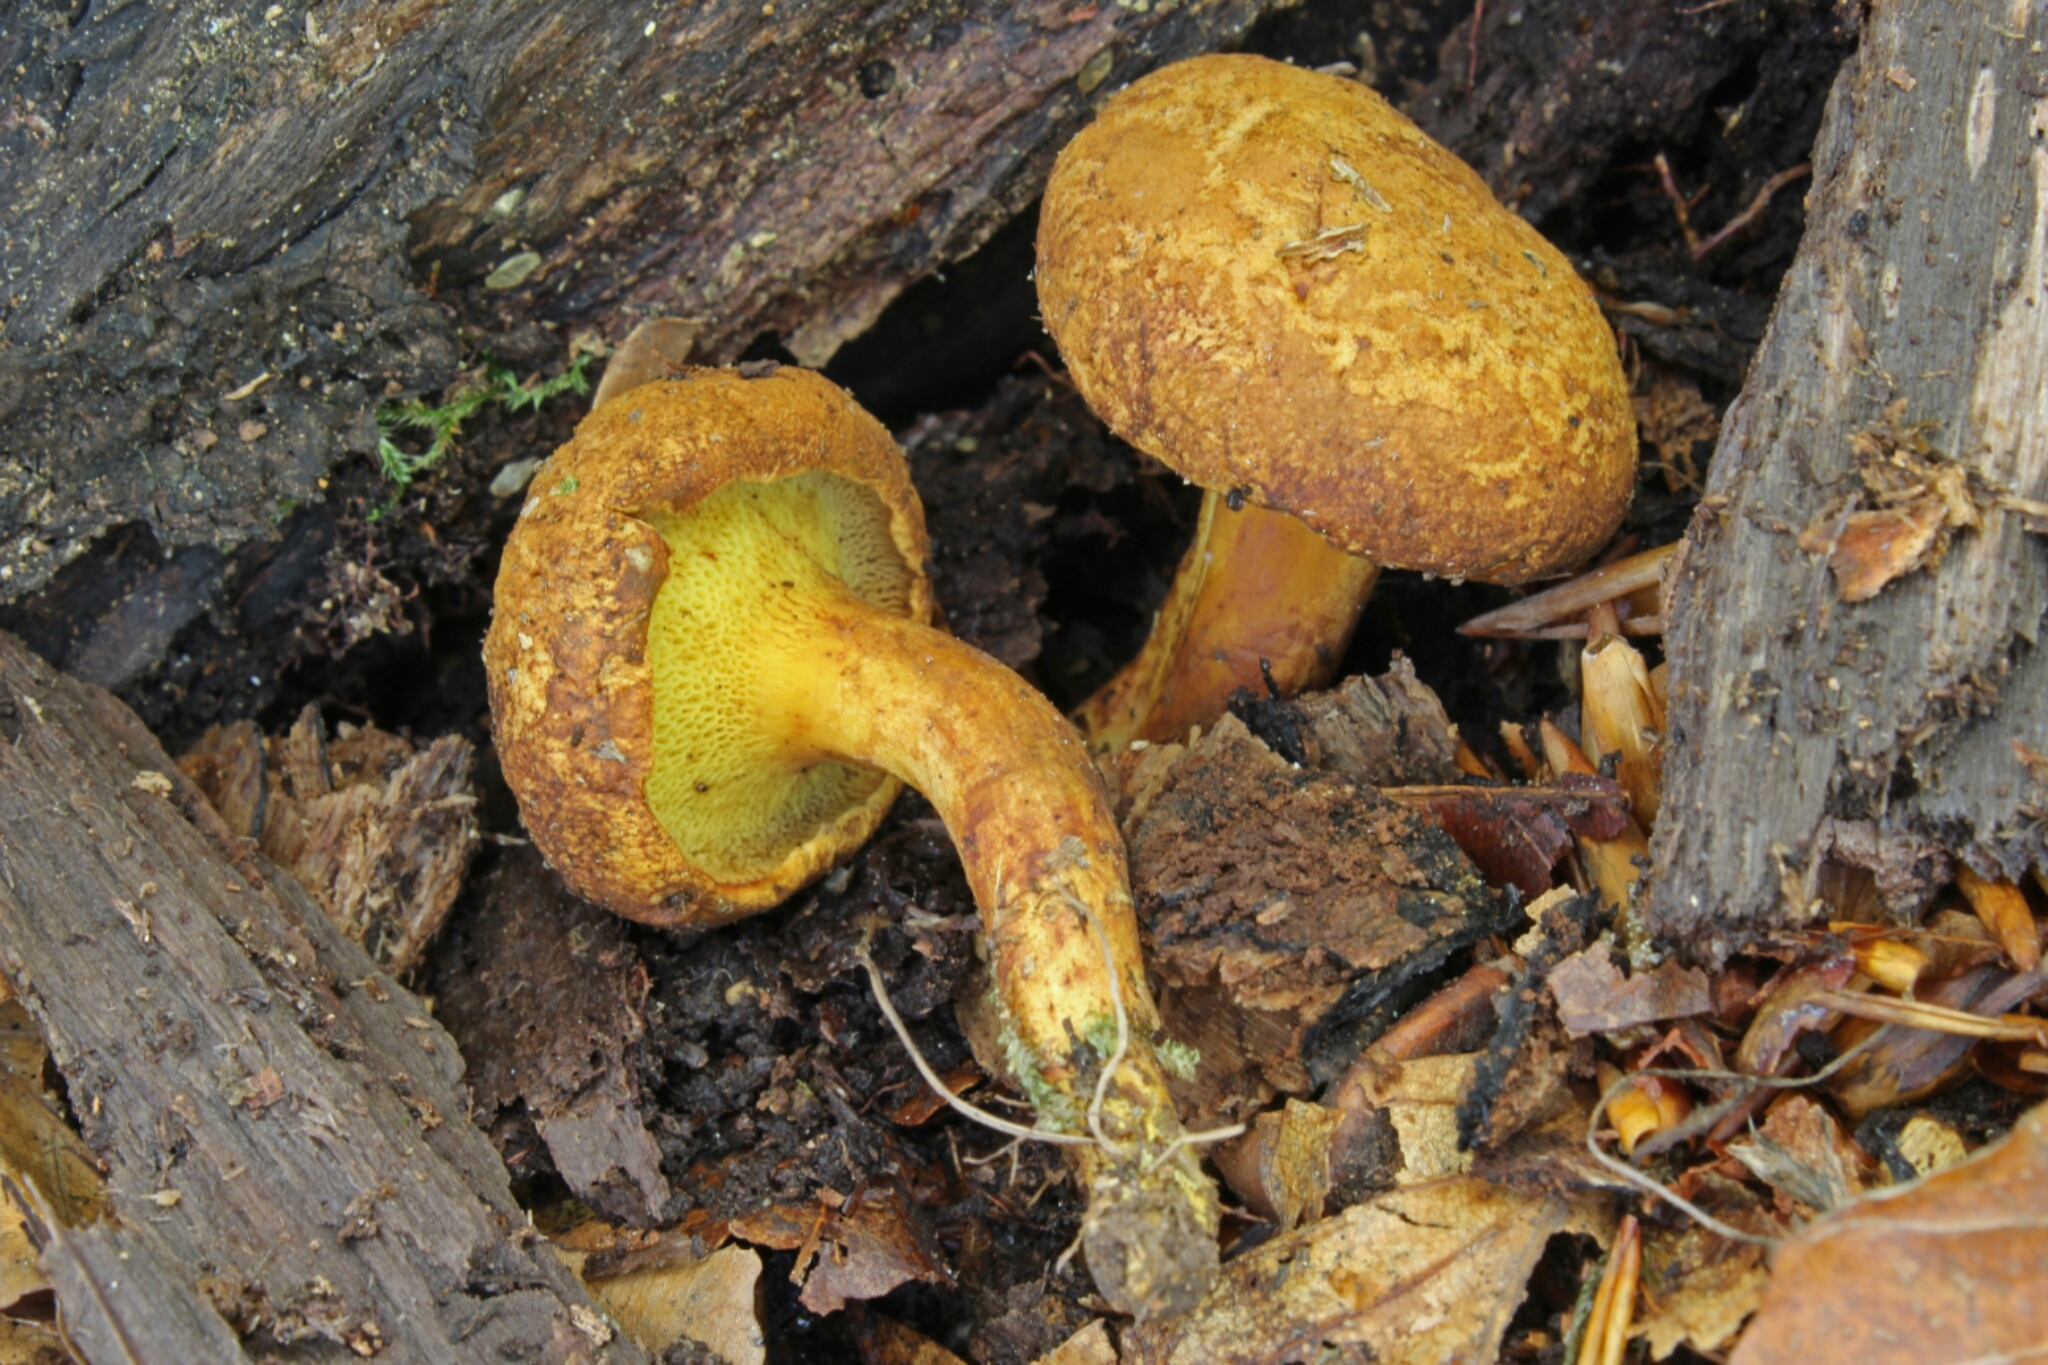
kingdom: Fungi
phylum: Basidiomycota
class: Agaricomycetes
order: Boletales
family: Boletaceae
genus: Buchwaldoboletus
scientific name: Buchwaldoboletus lignicola
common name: Wood bolete
